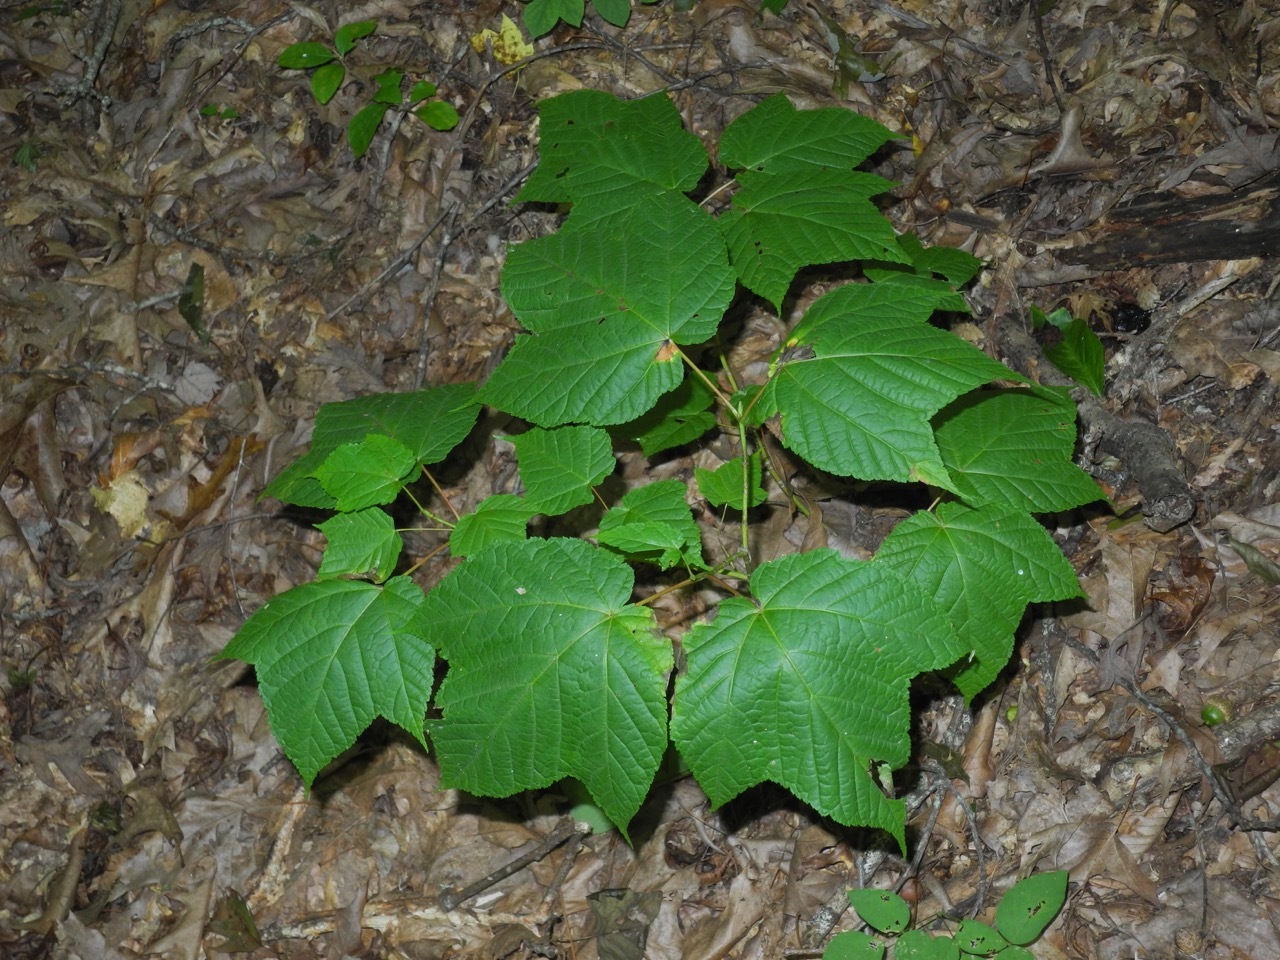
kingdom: Plantae
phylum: Tracheophyta
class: Magnoliopsida
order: Sapindales
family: Sapindaceae
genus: Acer
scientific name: Acer pensylvanicum
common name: Moosewood
